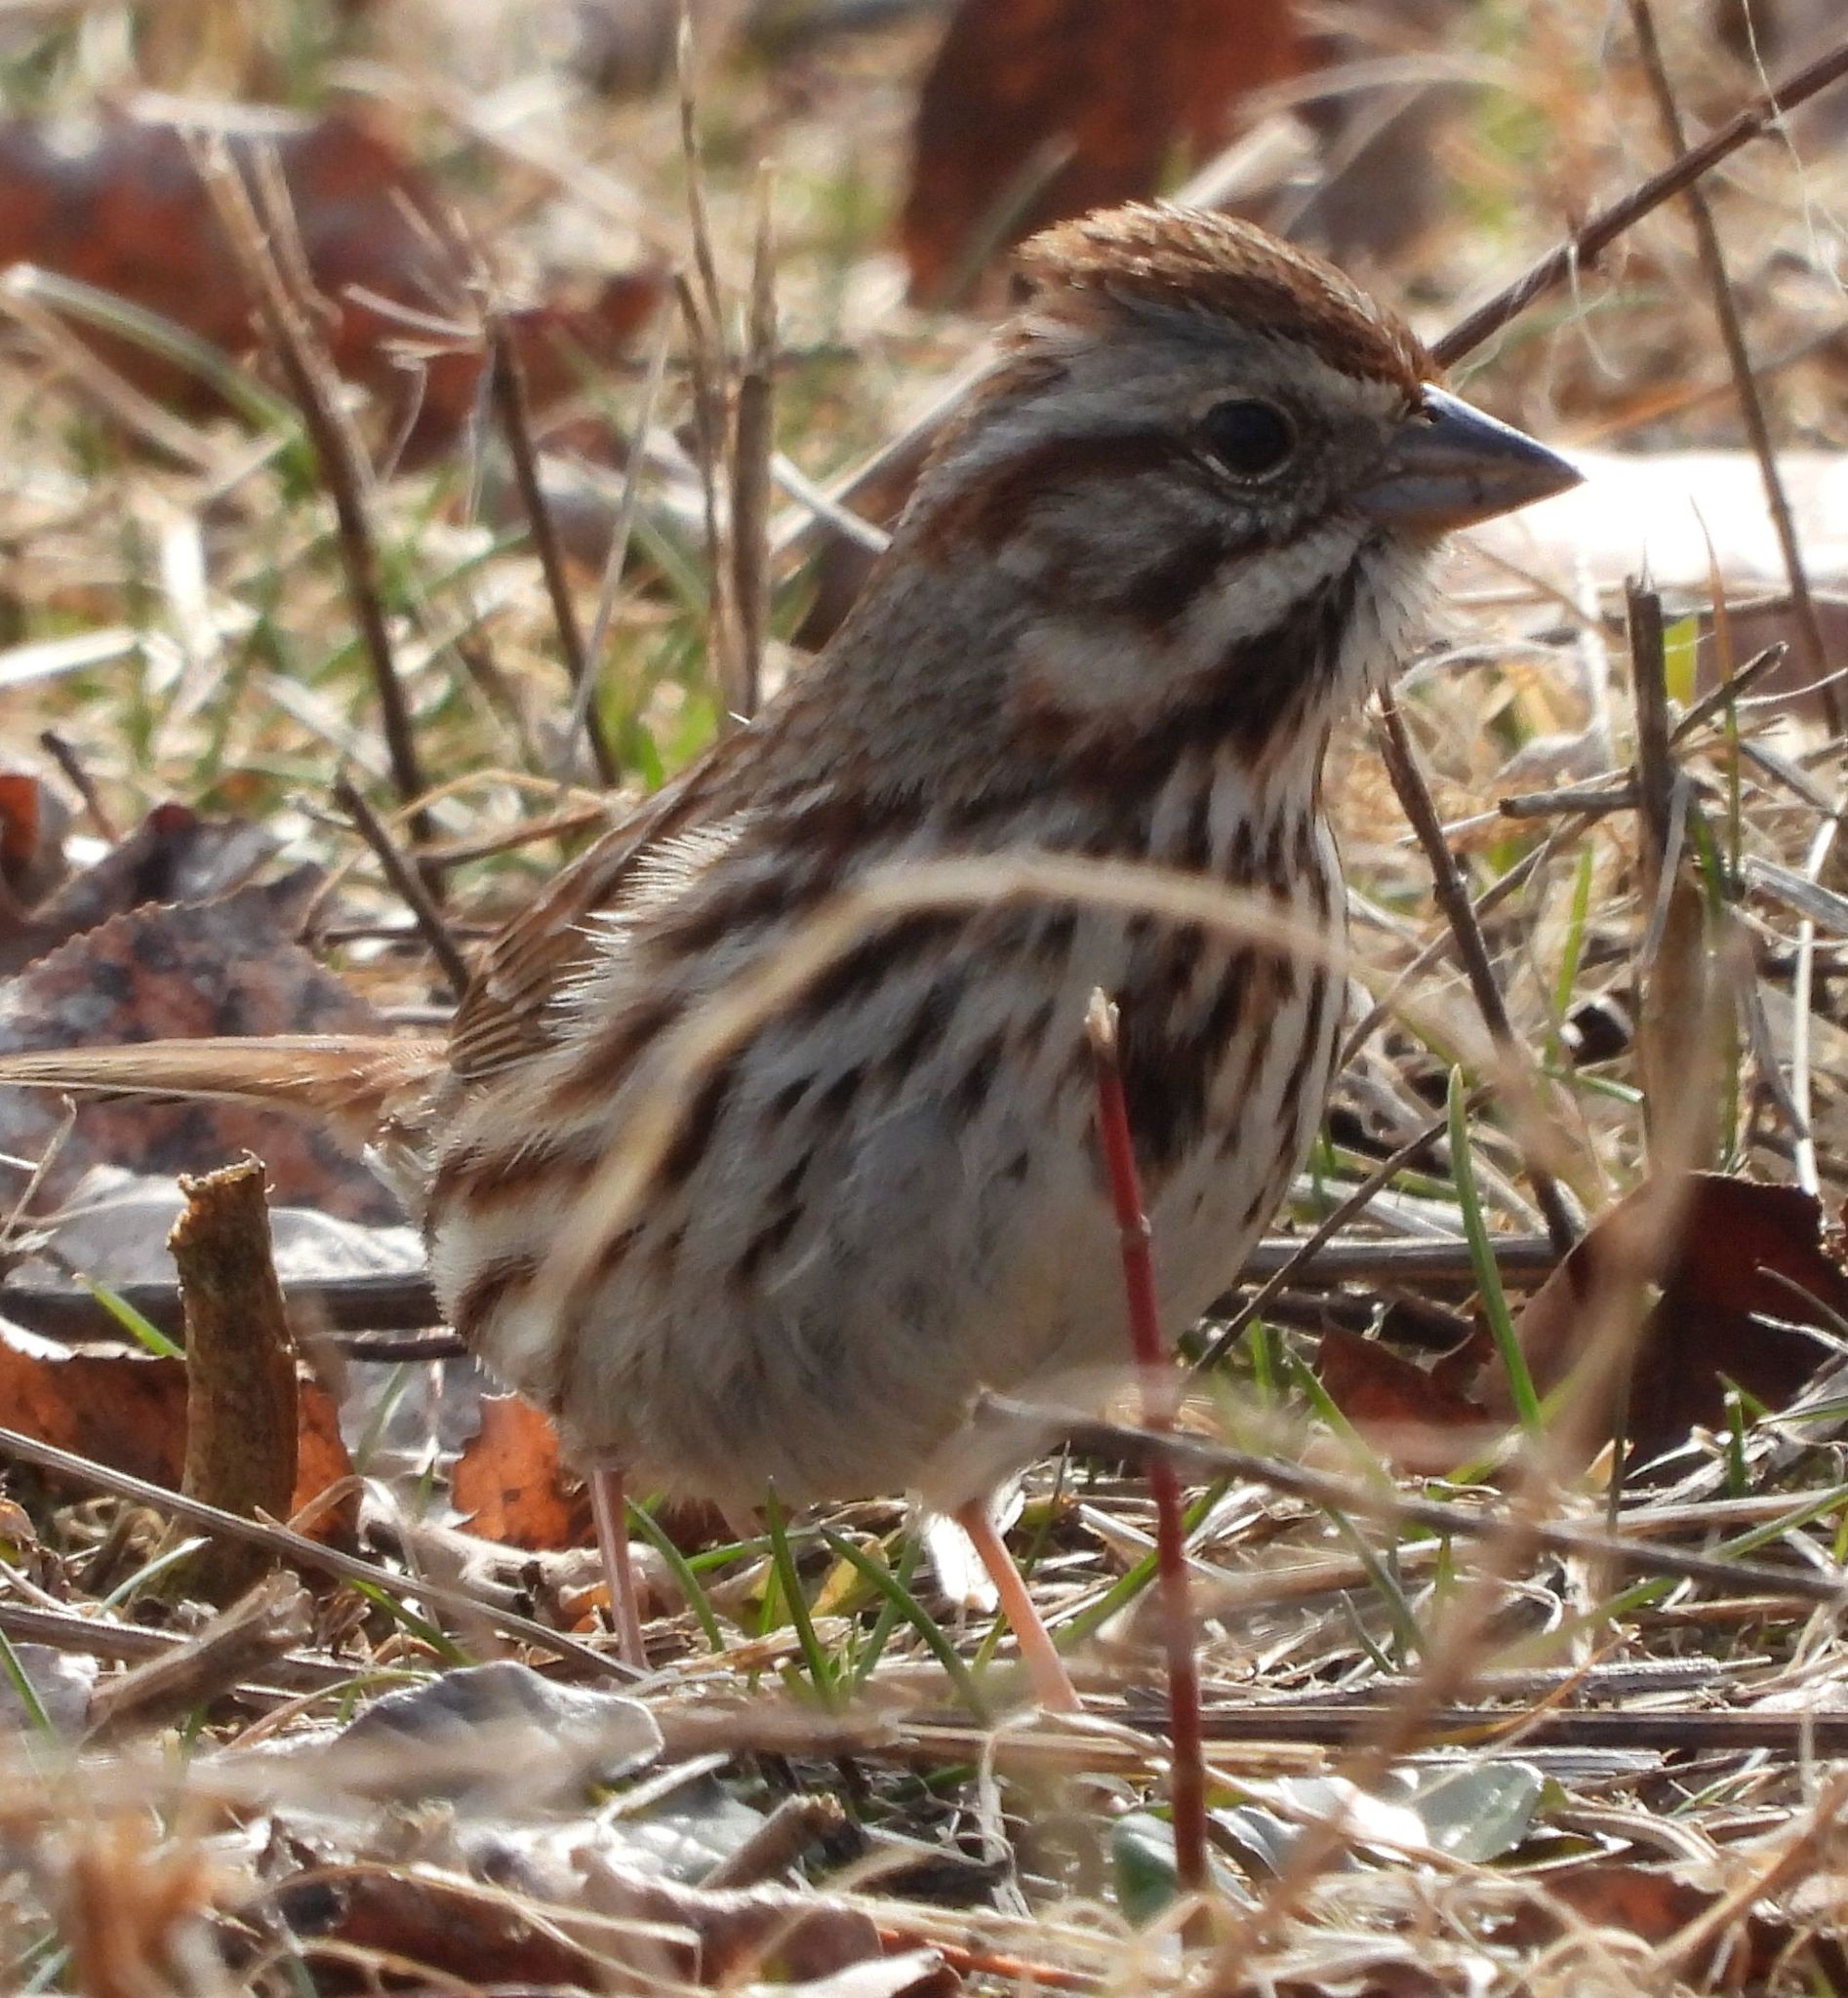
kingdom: Animalia
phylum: Chordata
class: Aves
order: Passeriformes
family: Passerellidae
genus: Melospiza
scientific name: Melospiza melodia
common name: Song sparrow
